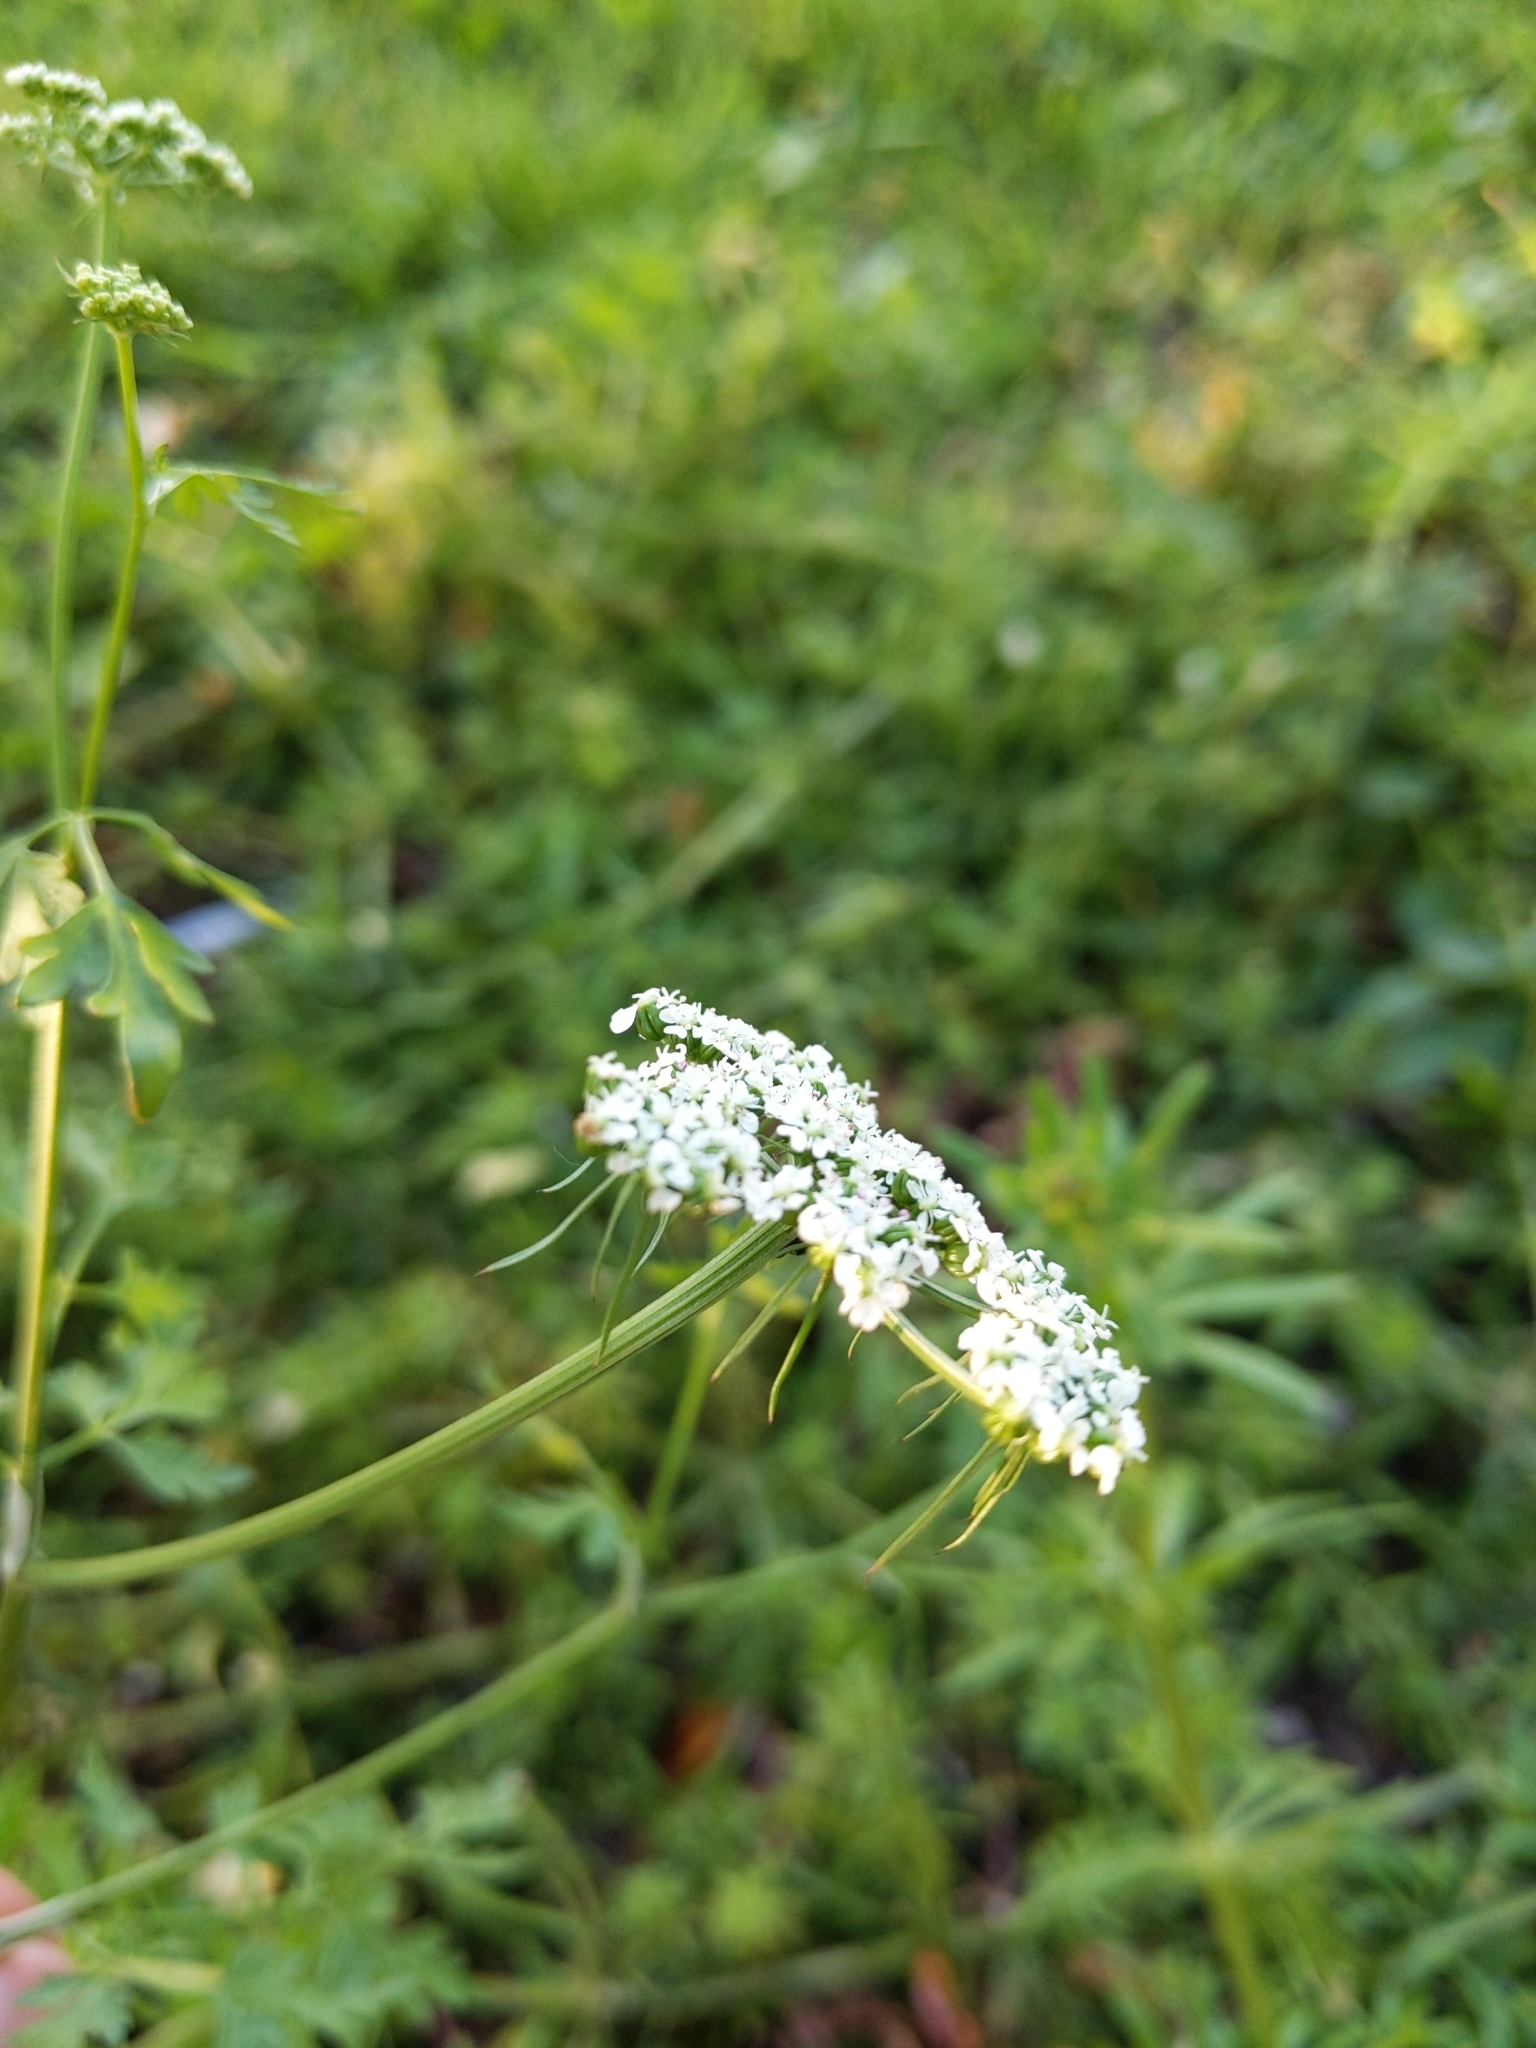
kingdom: Plantae
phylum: Tracheophyta
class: Magnoliopsida
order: Apiales
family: Apiaceae
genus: Aethusa
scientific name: Aethusa cynapium
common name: Fool's parsley
